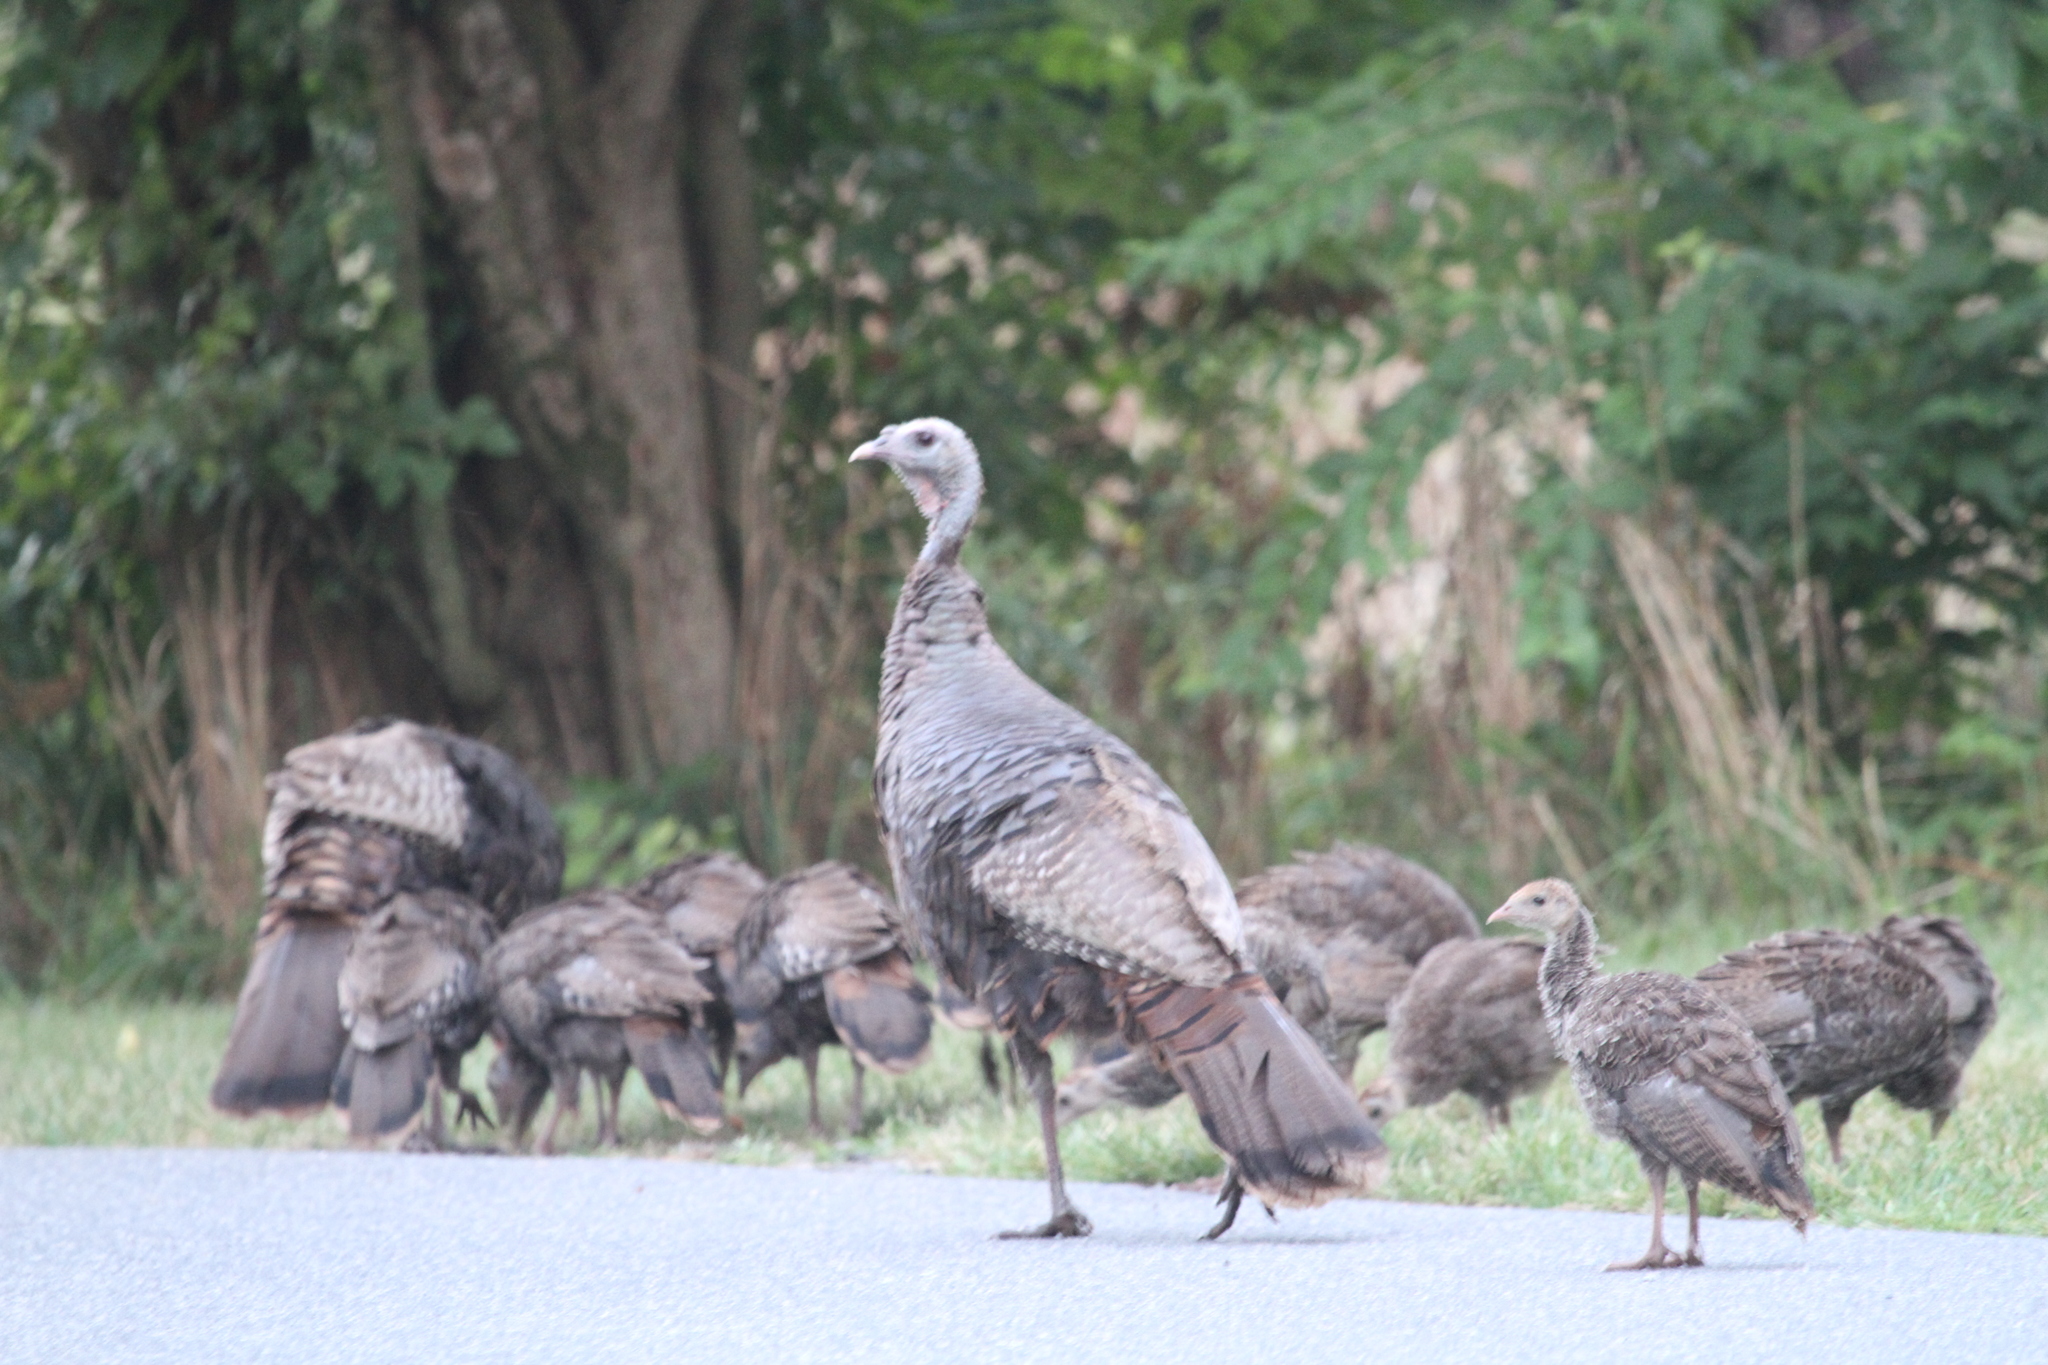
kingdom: Animalia
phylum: Chordata
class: Aves
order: Galliformes
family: Phasianidae
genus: Meleagris
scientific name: Meleagris gallopavo
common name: Wild turkey
